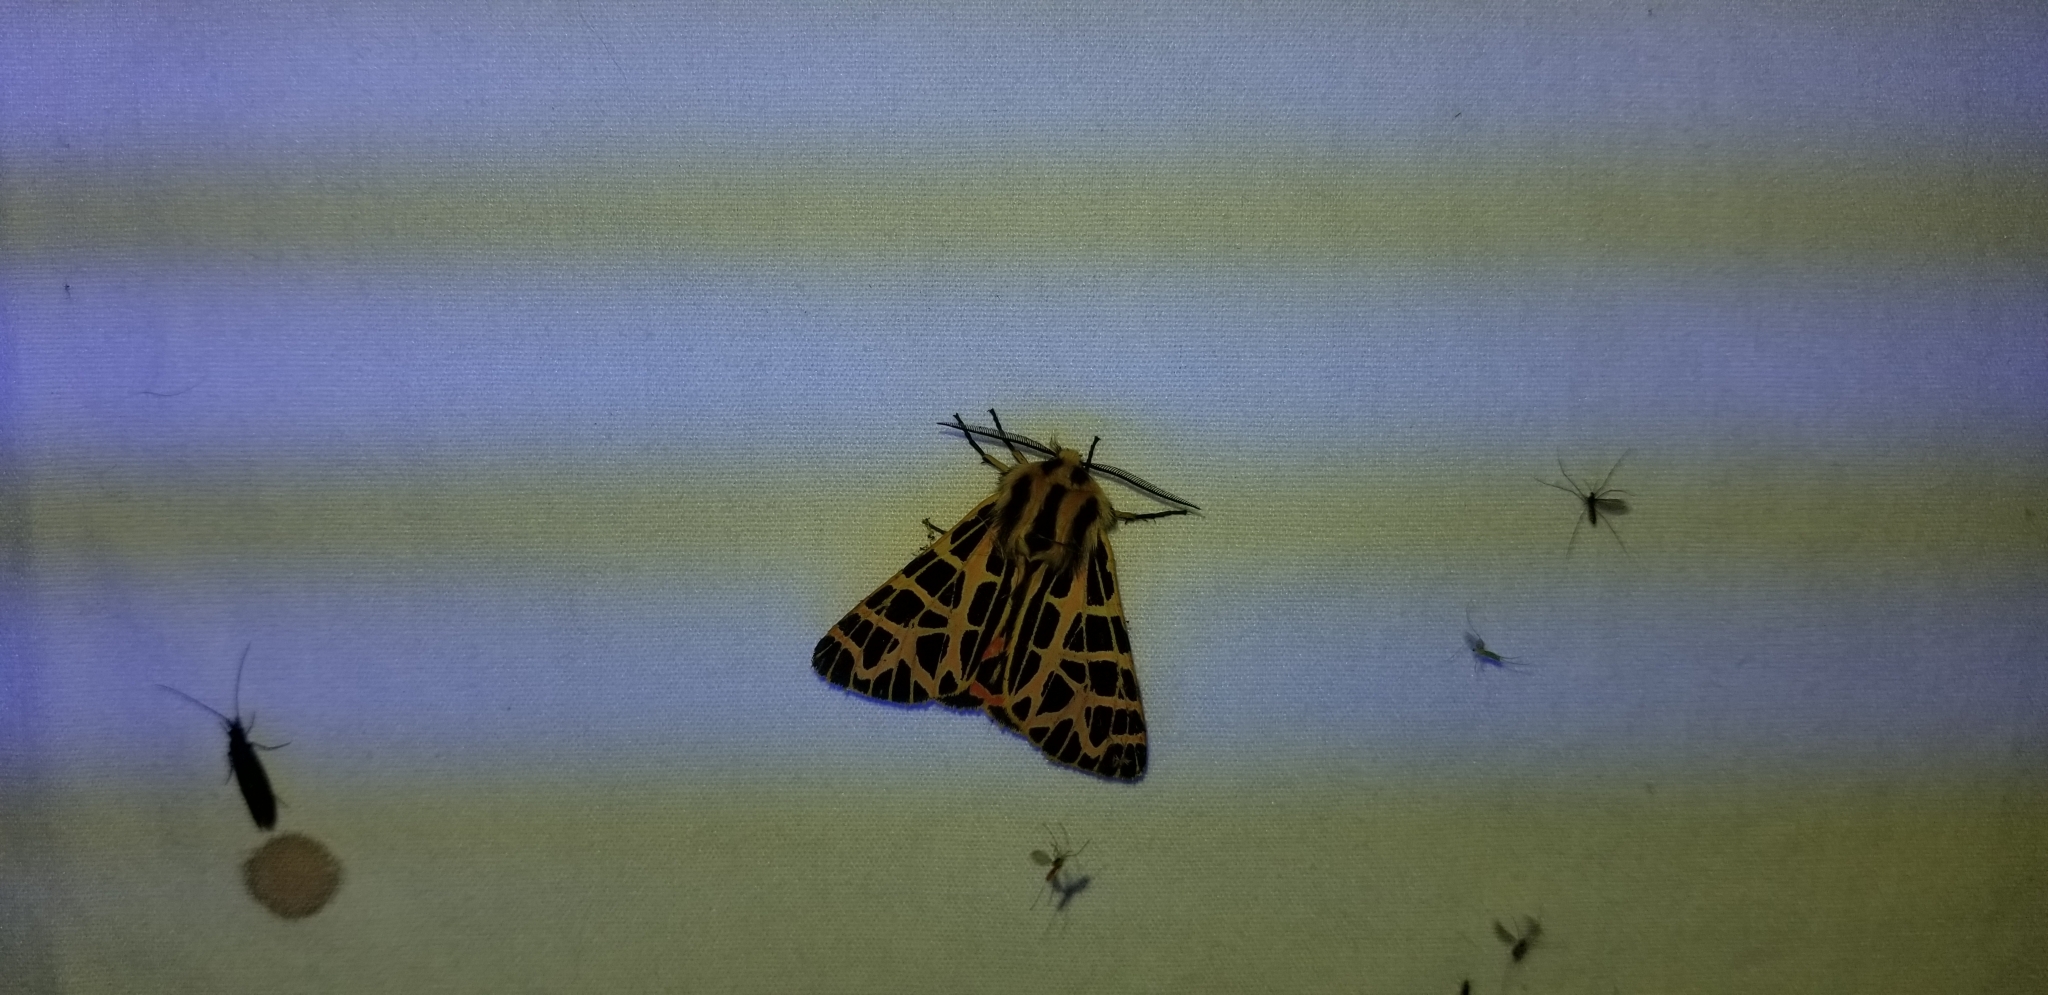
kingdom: Animalia
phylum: Arthropoda
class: Insecta
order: Lepidoptera
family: Erebidae
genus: Apantesis
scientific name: Apantesis
